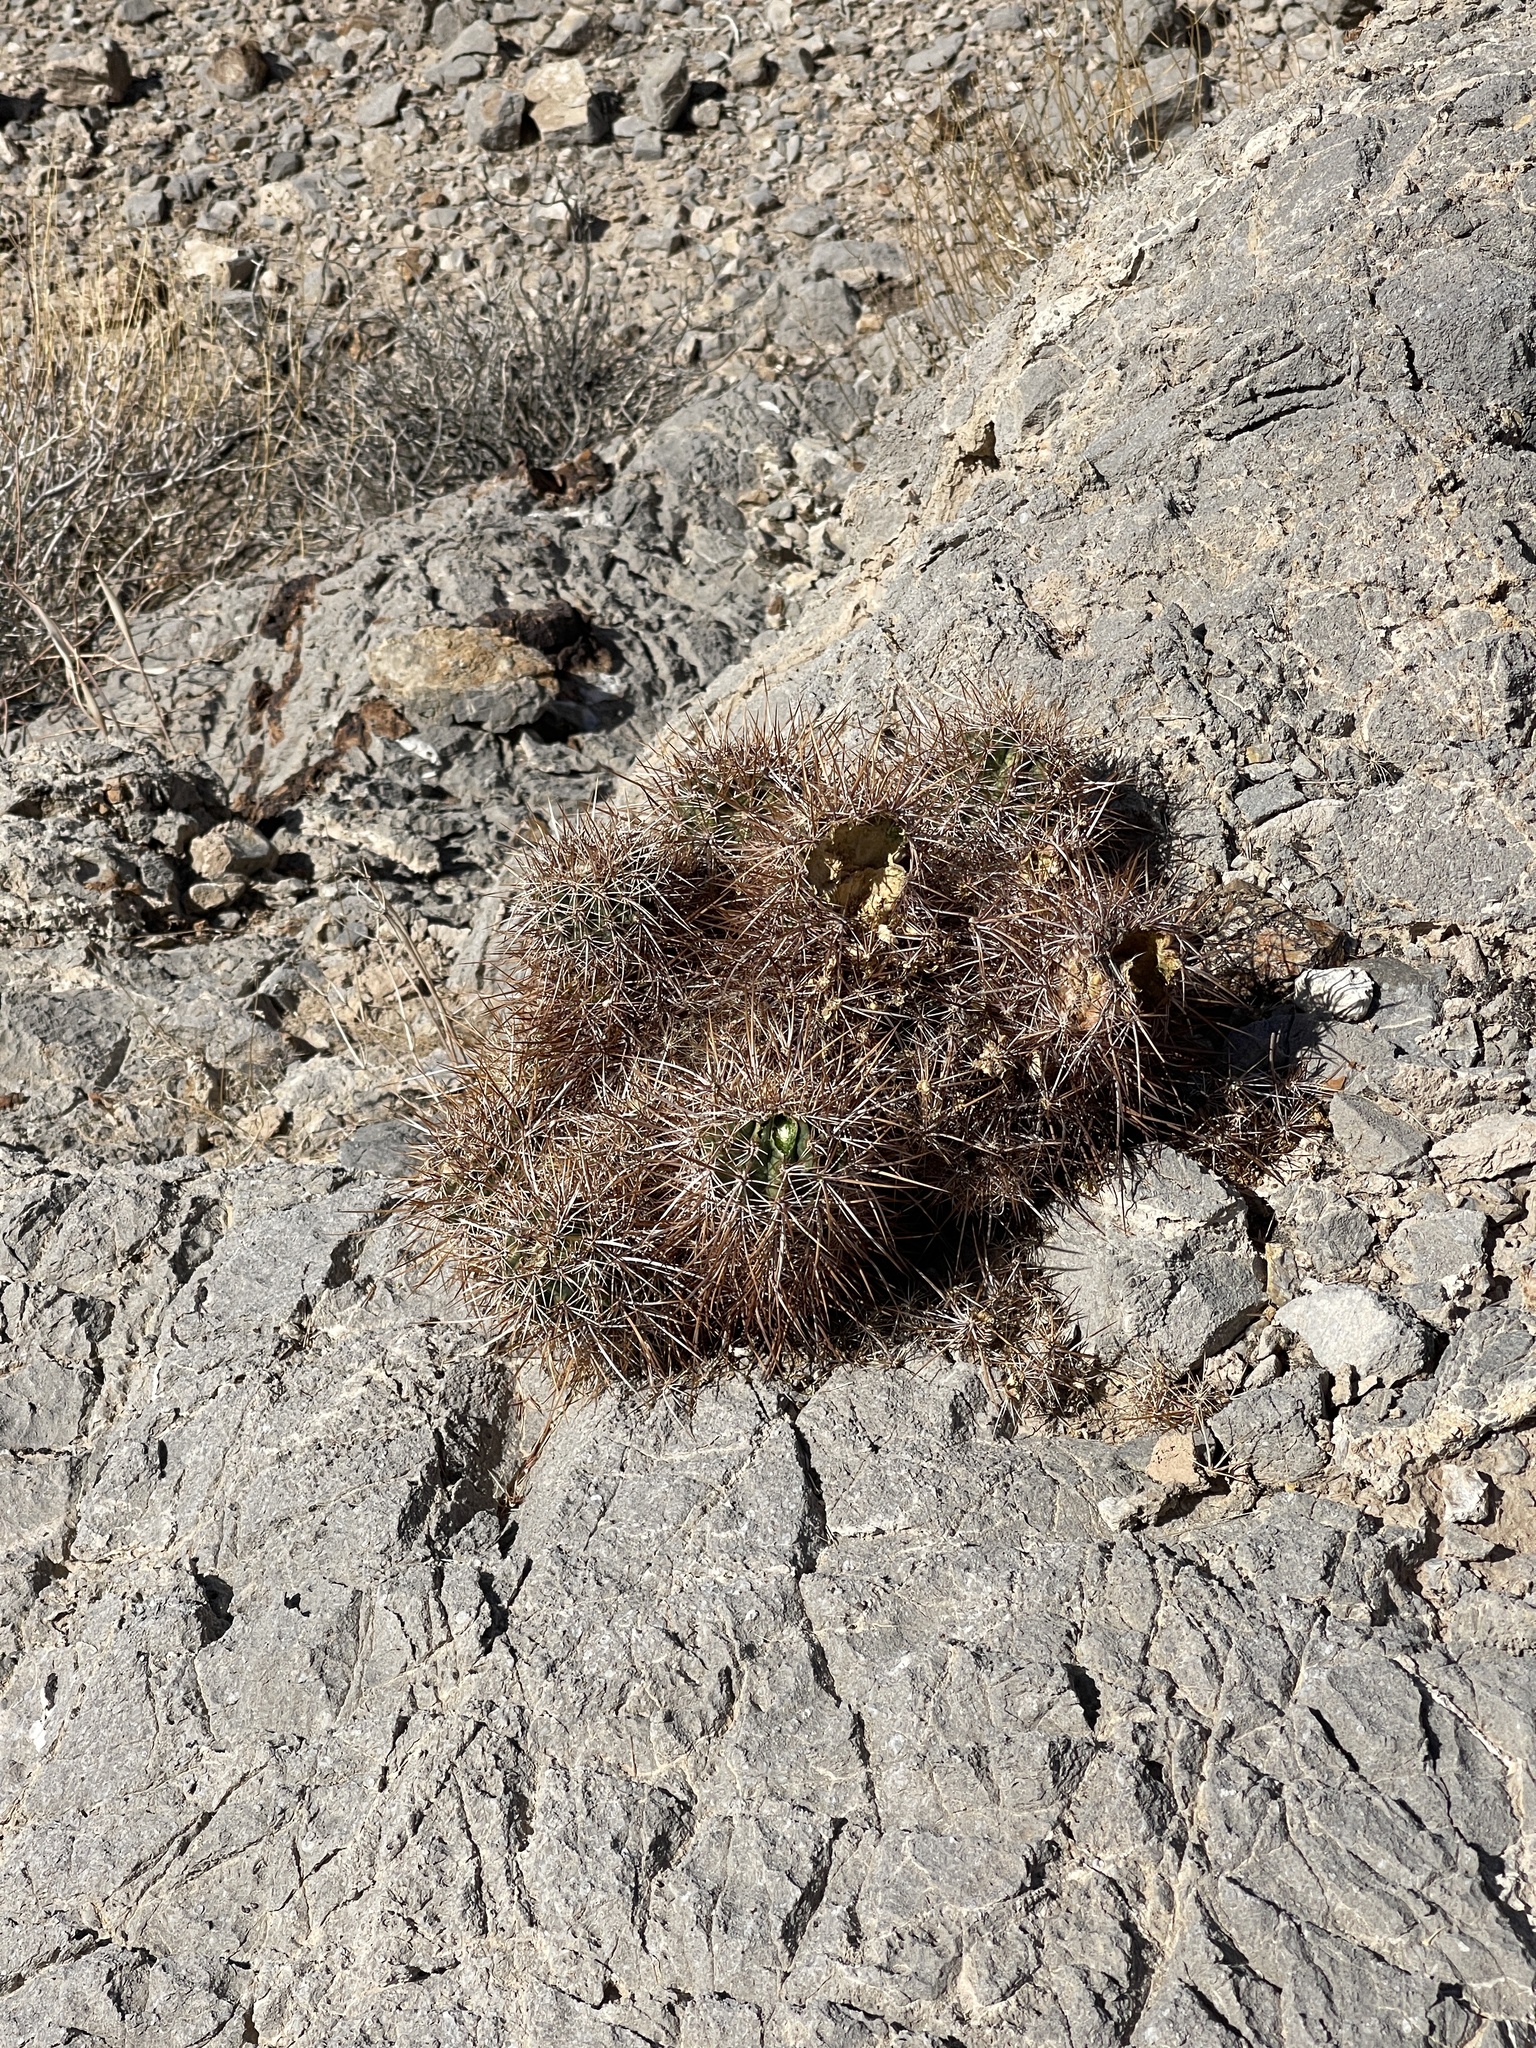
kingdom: Plantae
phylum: Tracheophyta
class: Magnoliopsida
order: Caryophyllales
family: Cactaceae
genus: Echinocereus
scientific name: Echinocereus engelmannii
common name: Engelmann's hedgehog cactus
